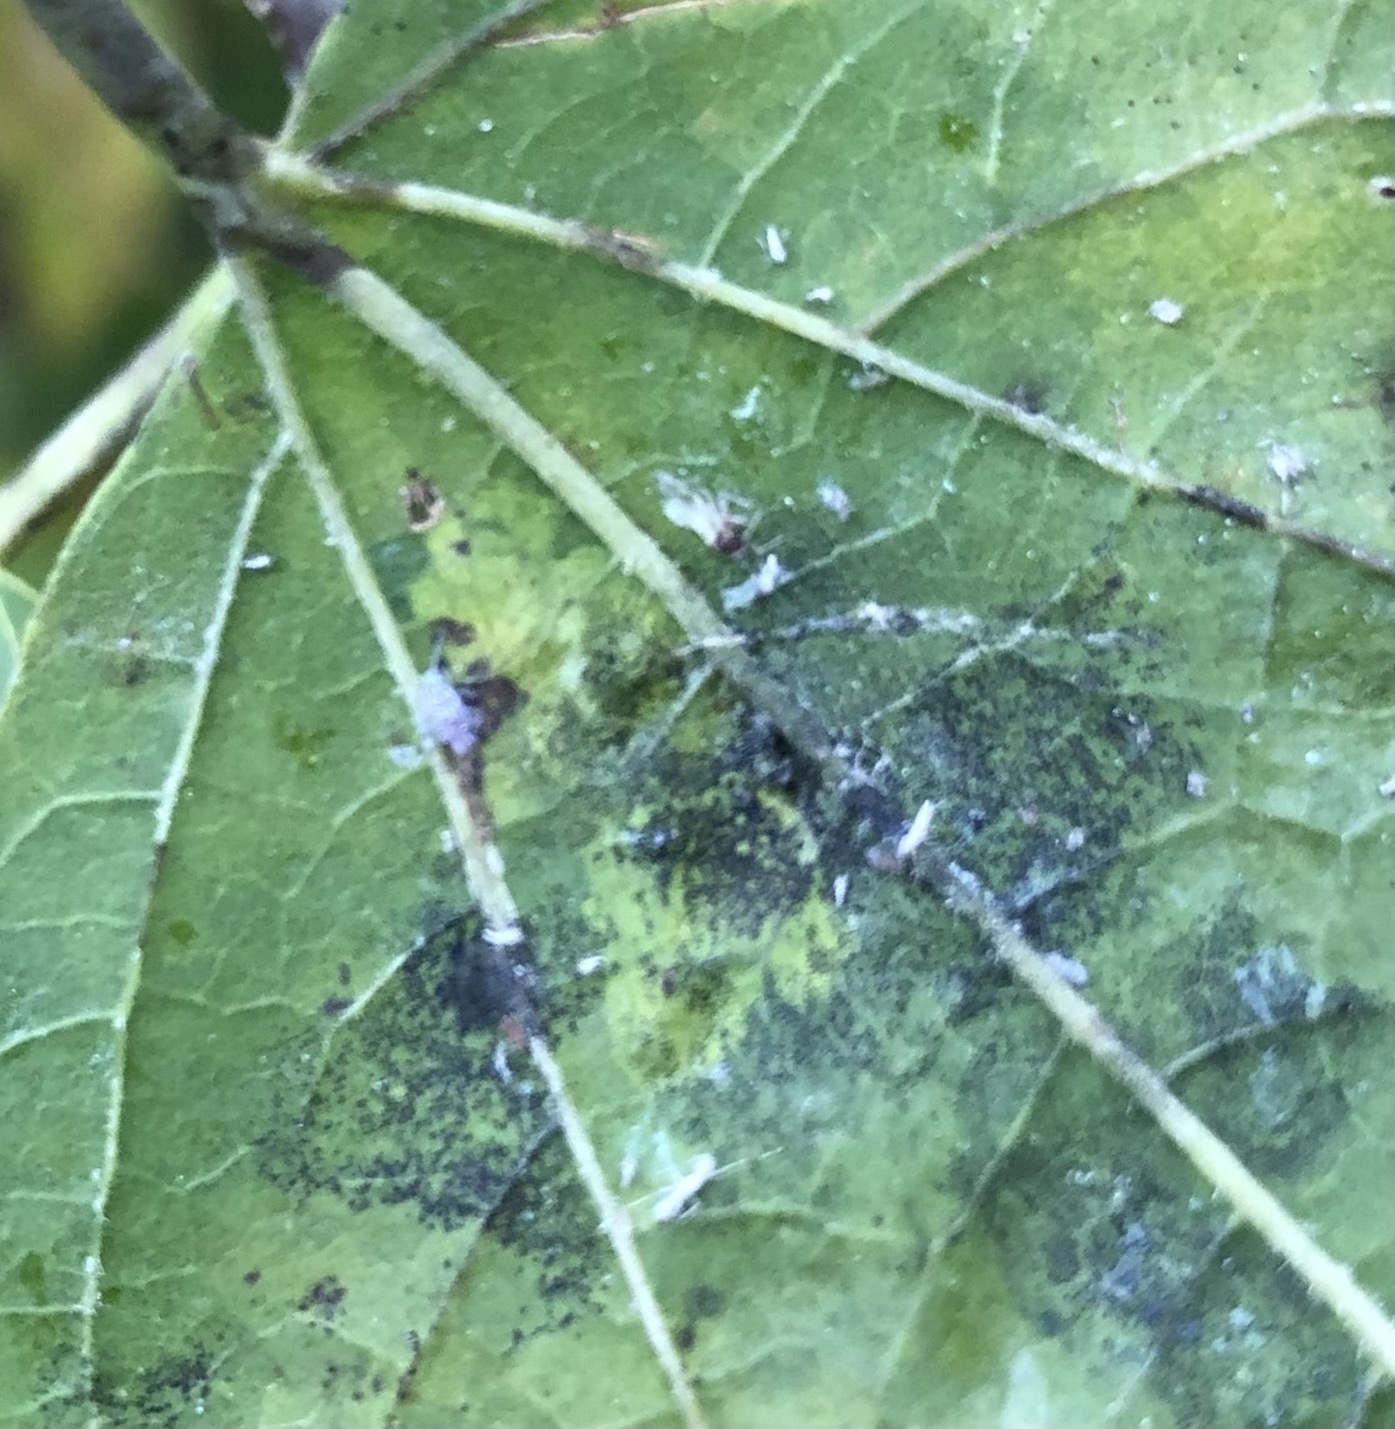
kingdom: Animalia
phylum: Arthropoda
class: Insecta
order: Lepidoptera
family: Gracillariidae
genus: Phyllonorycter
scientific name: Phyllonorycter celtisella
